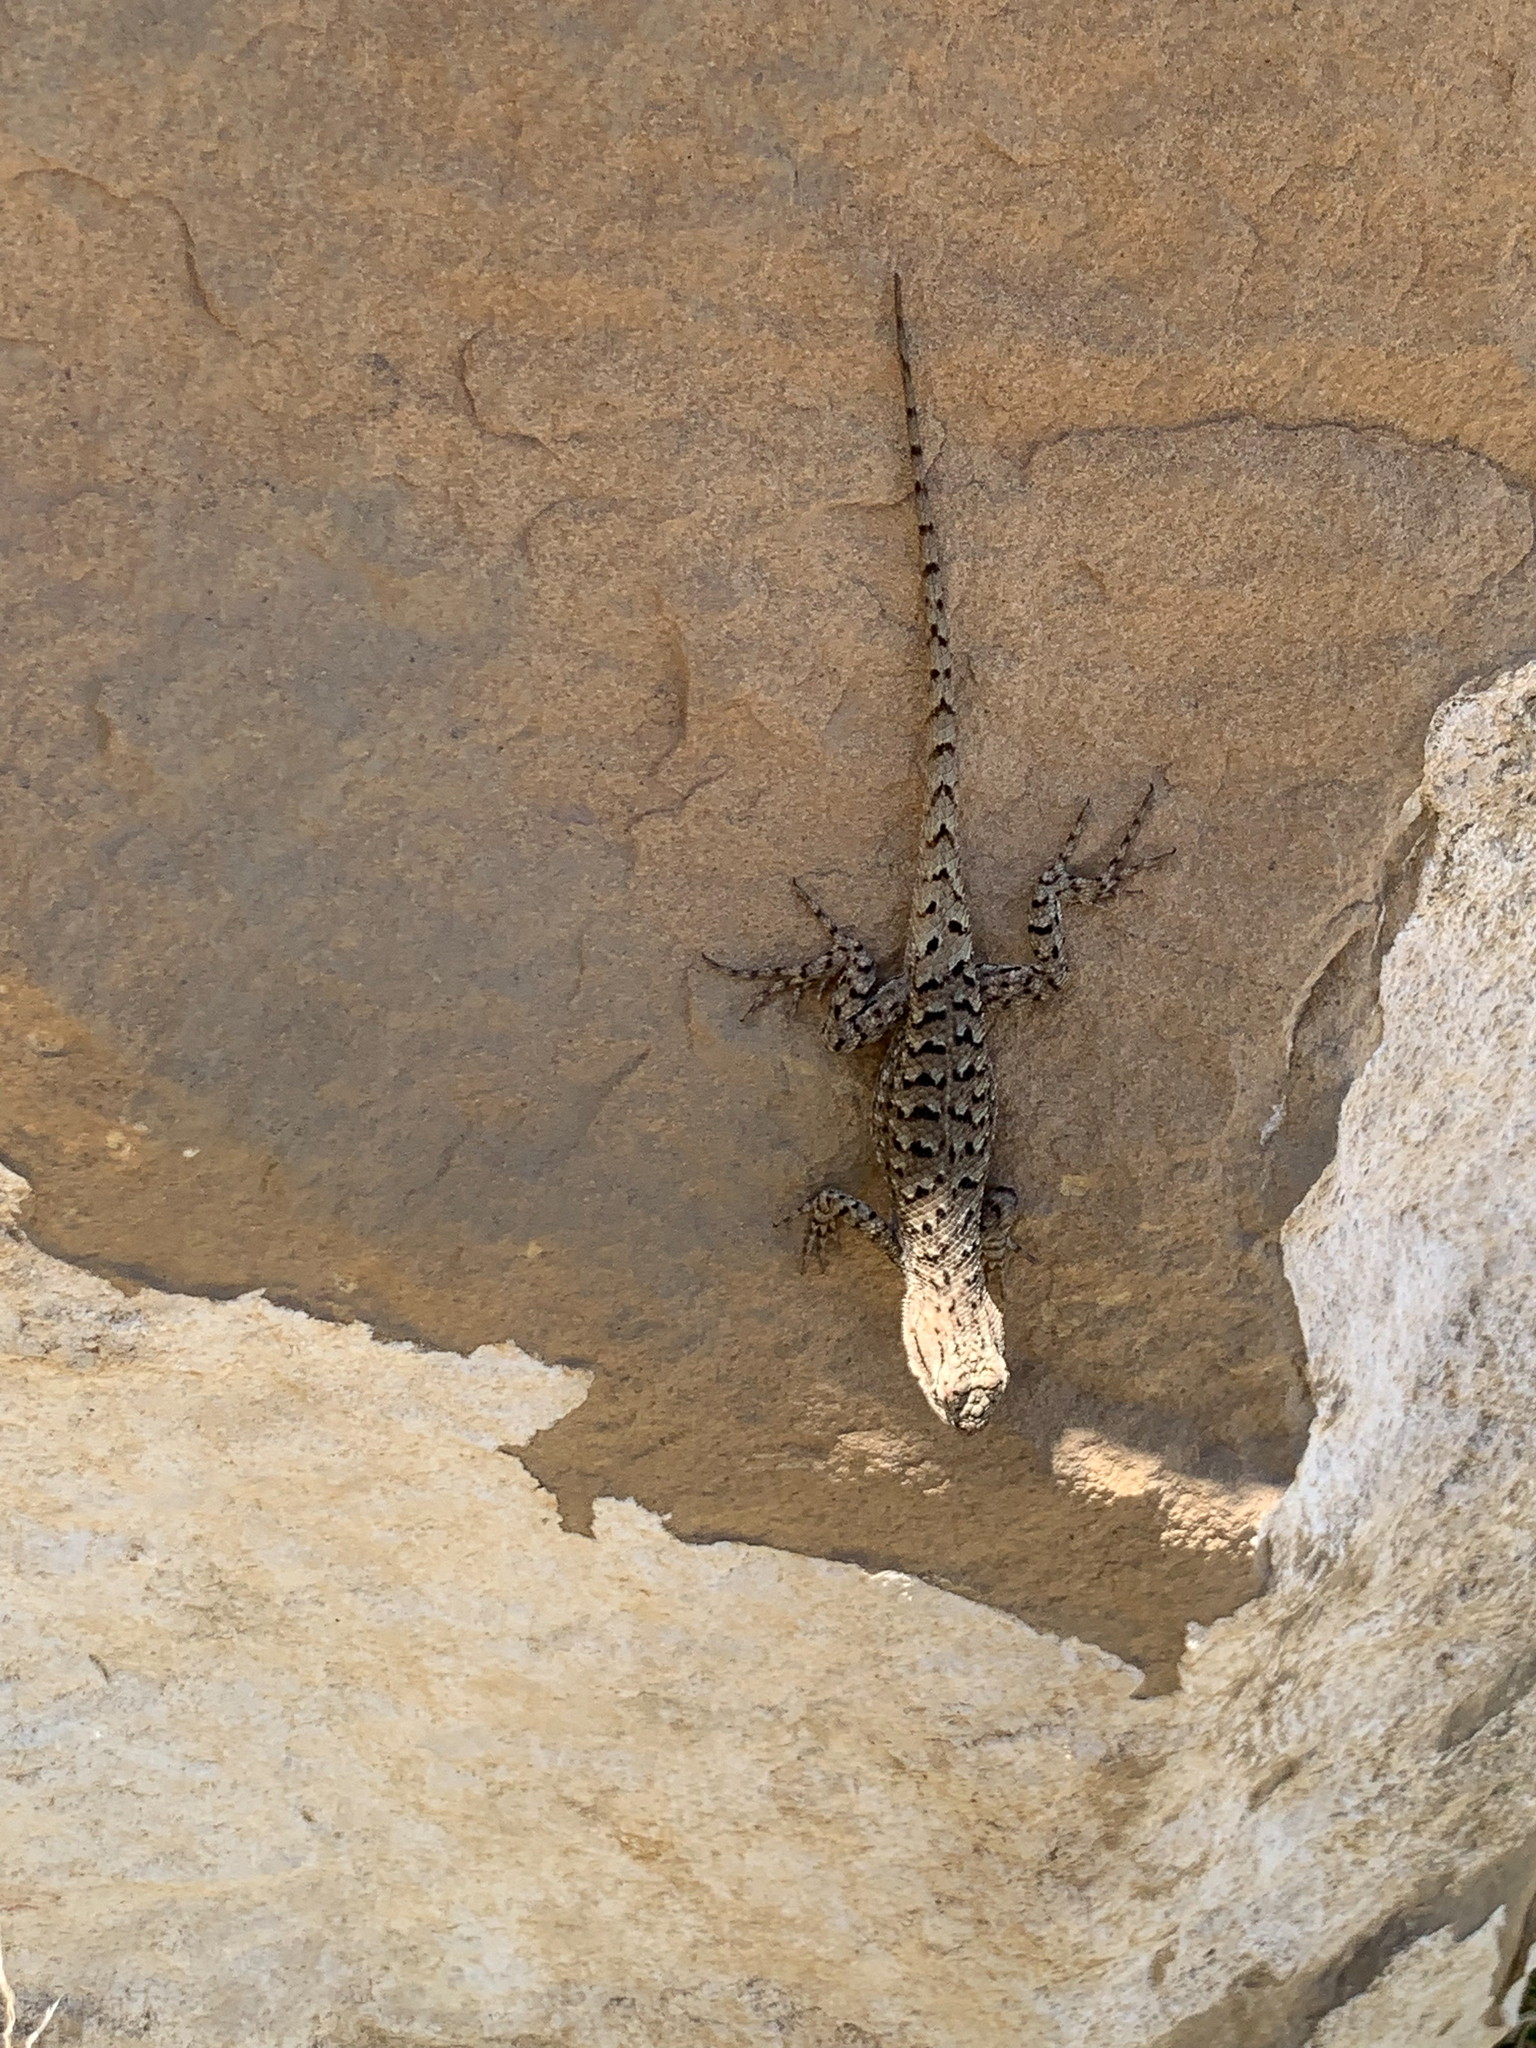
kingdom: Animalia
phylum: Chordata
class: Squamata
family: Phrynosomatidae
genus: Sceloporus
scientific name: Sceloporus tristichus
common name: Plateau fence lizard
